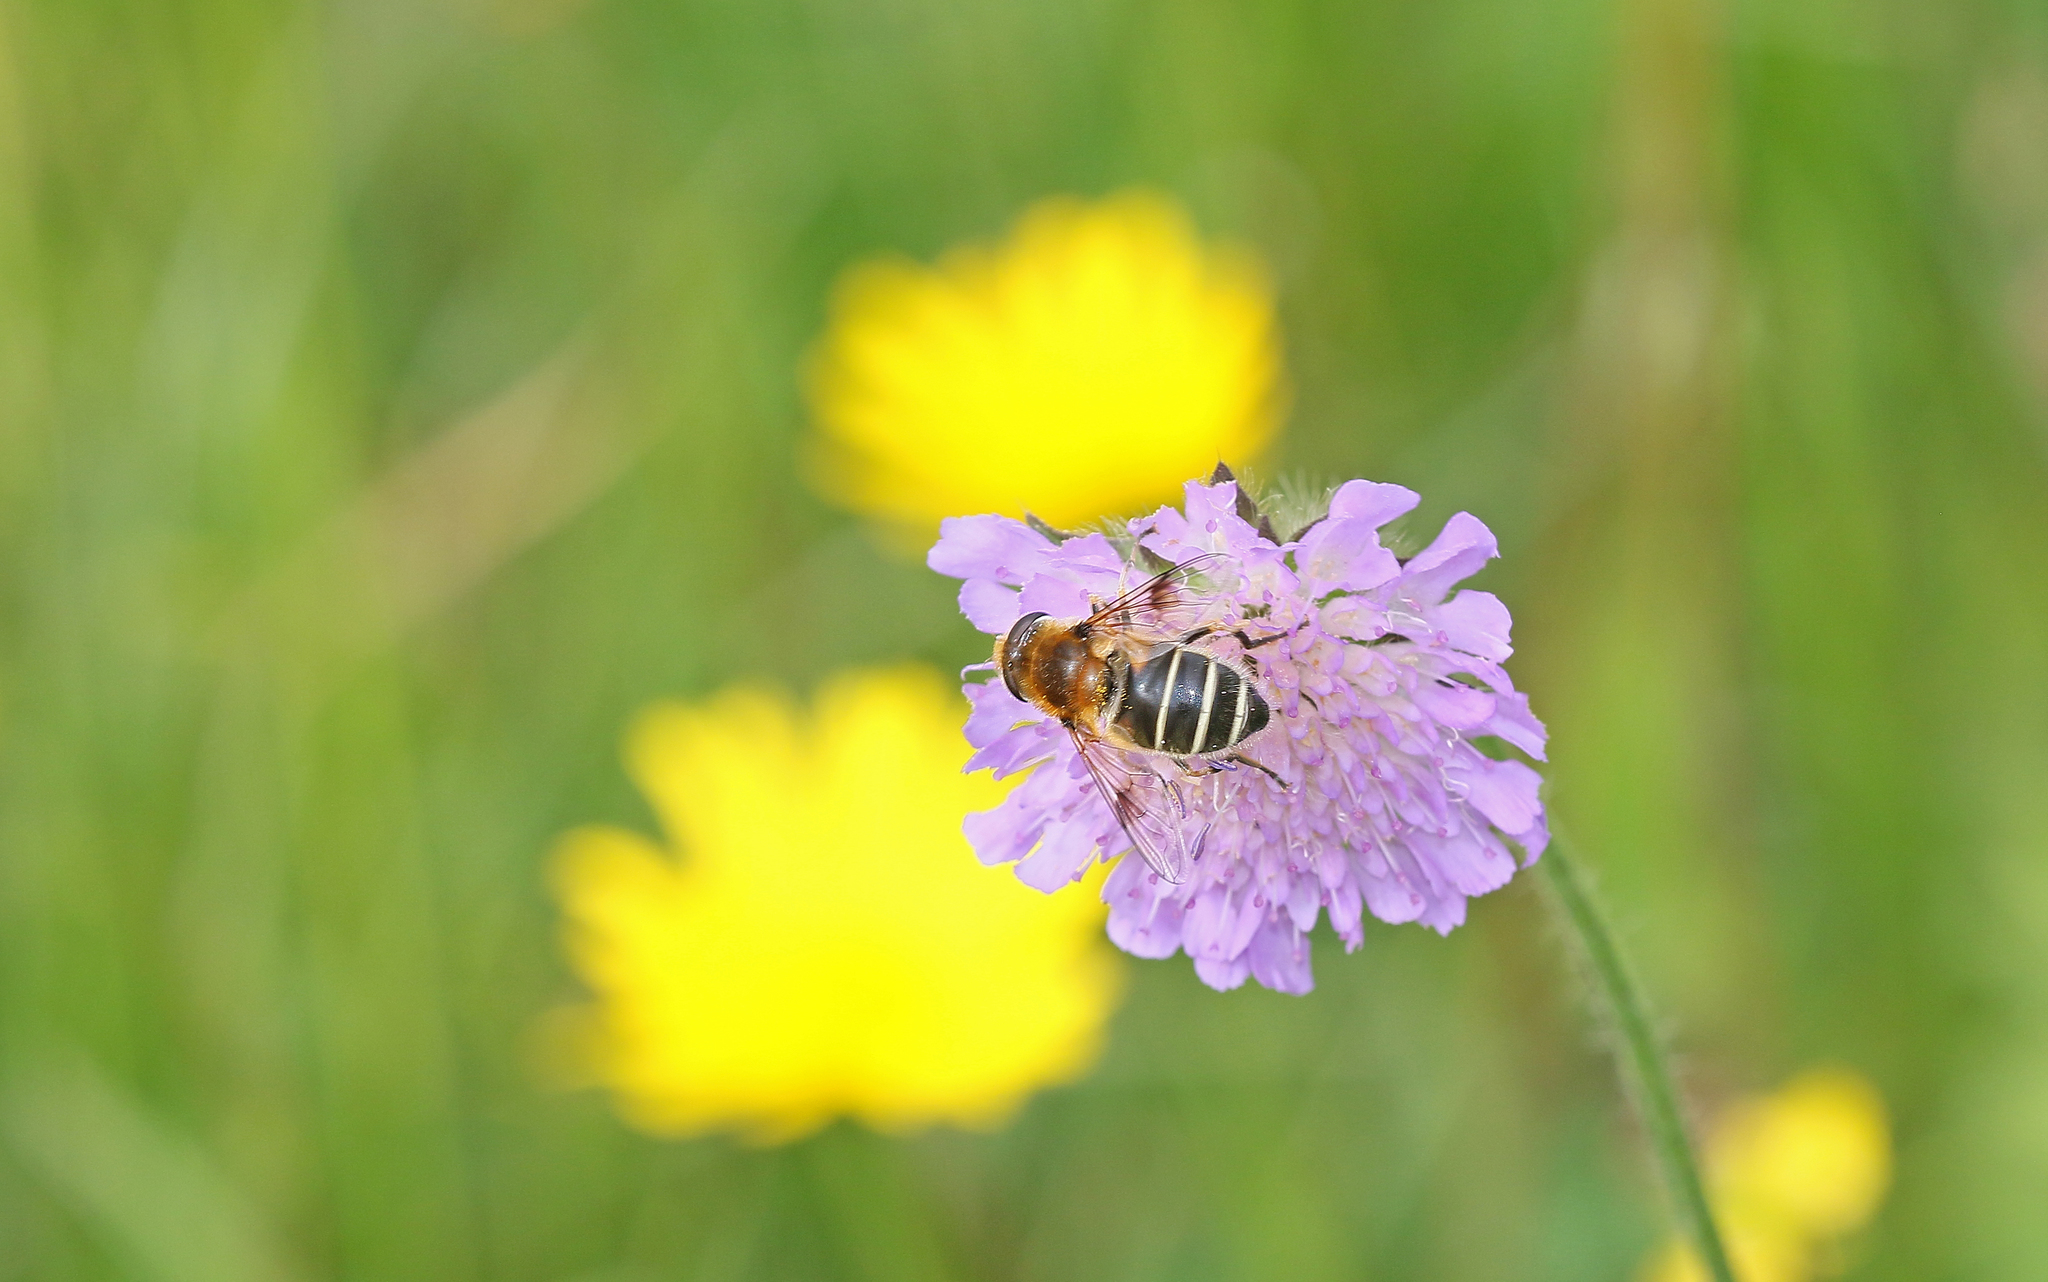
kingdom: Animalia
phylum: Arthropoda
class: Insecta
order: Diptera
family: Syrphidae
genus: Eristalis
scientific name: Eristalis jugorum
